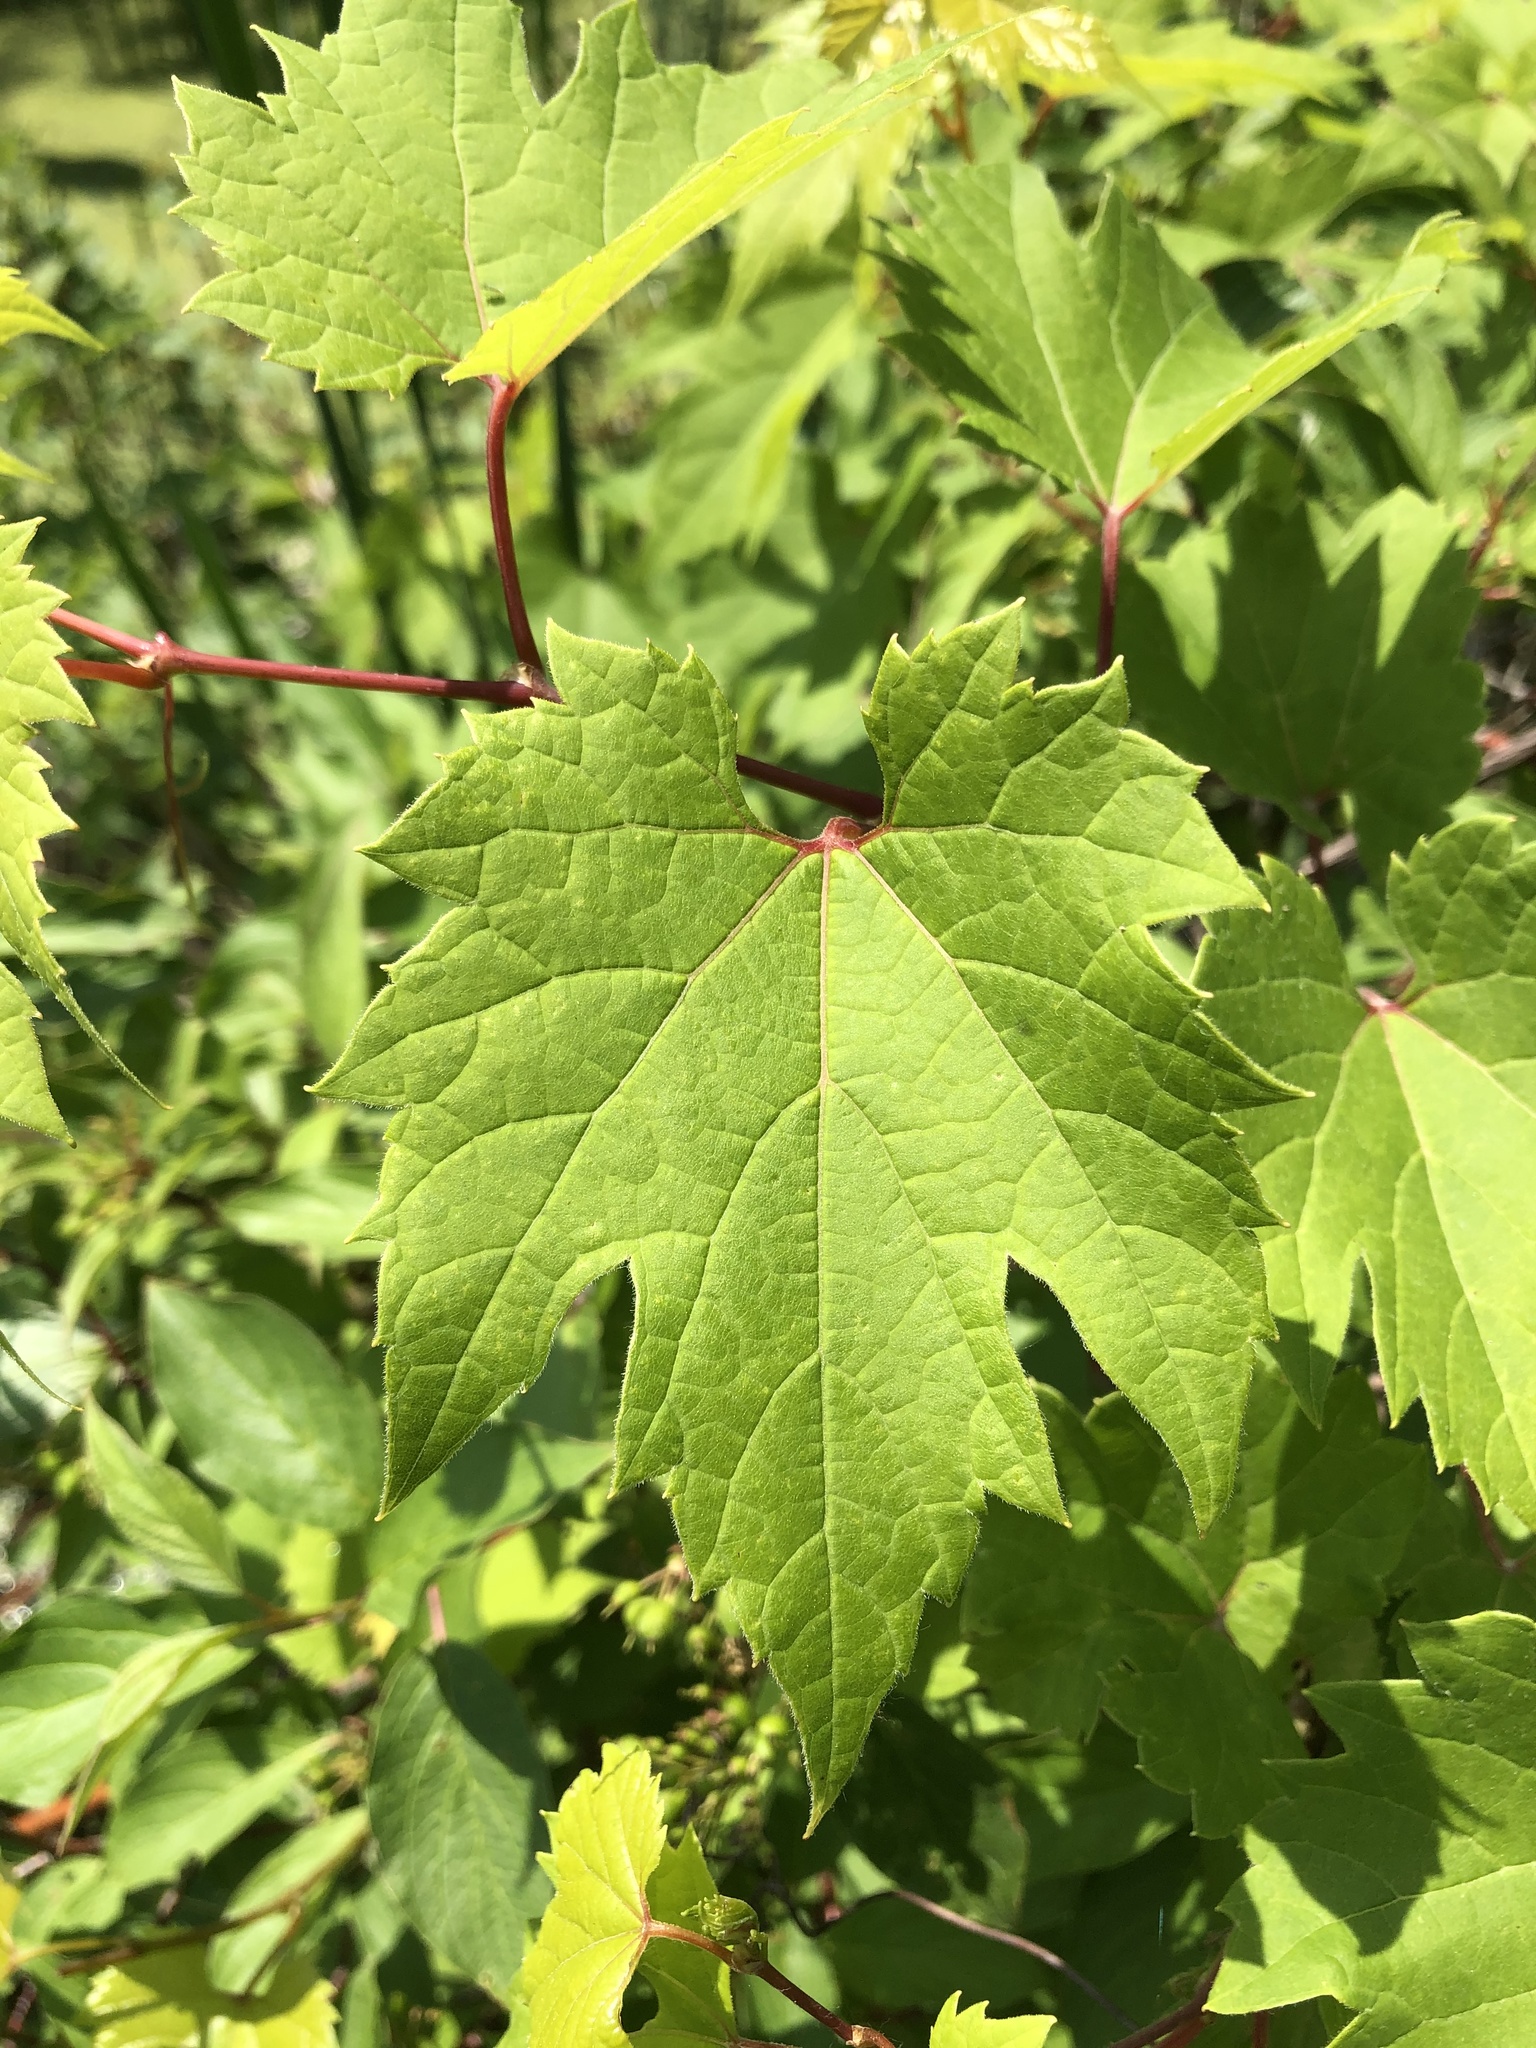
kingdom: Plantae
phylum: Tracheophyta
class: Magnoliopsida
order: Vitales
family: Vitaceae
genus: Vitis
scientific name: Vitis riparia
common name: Frost grape
